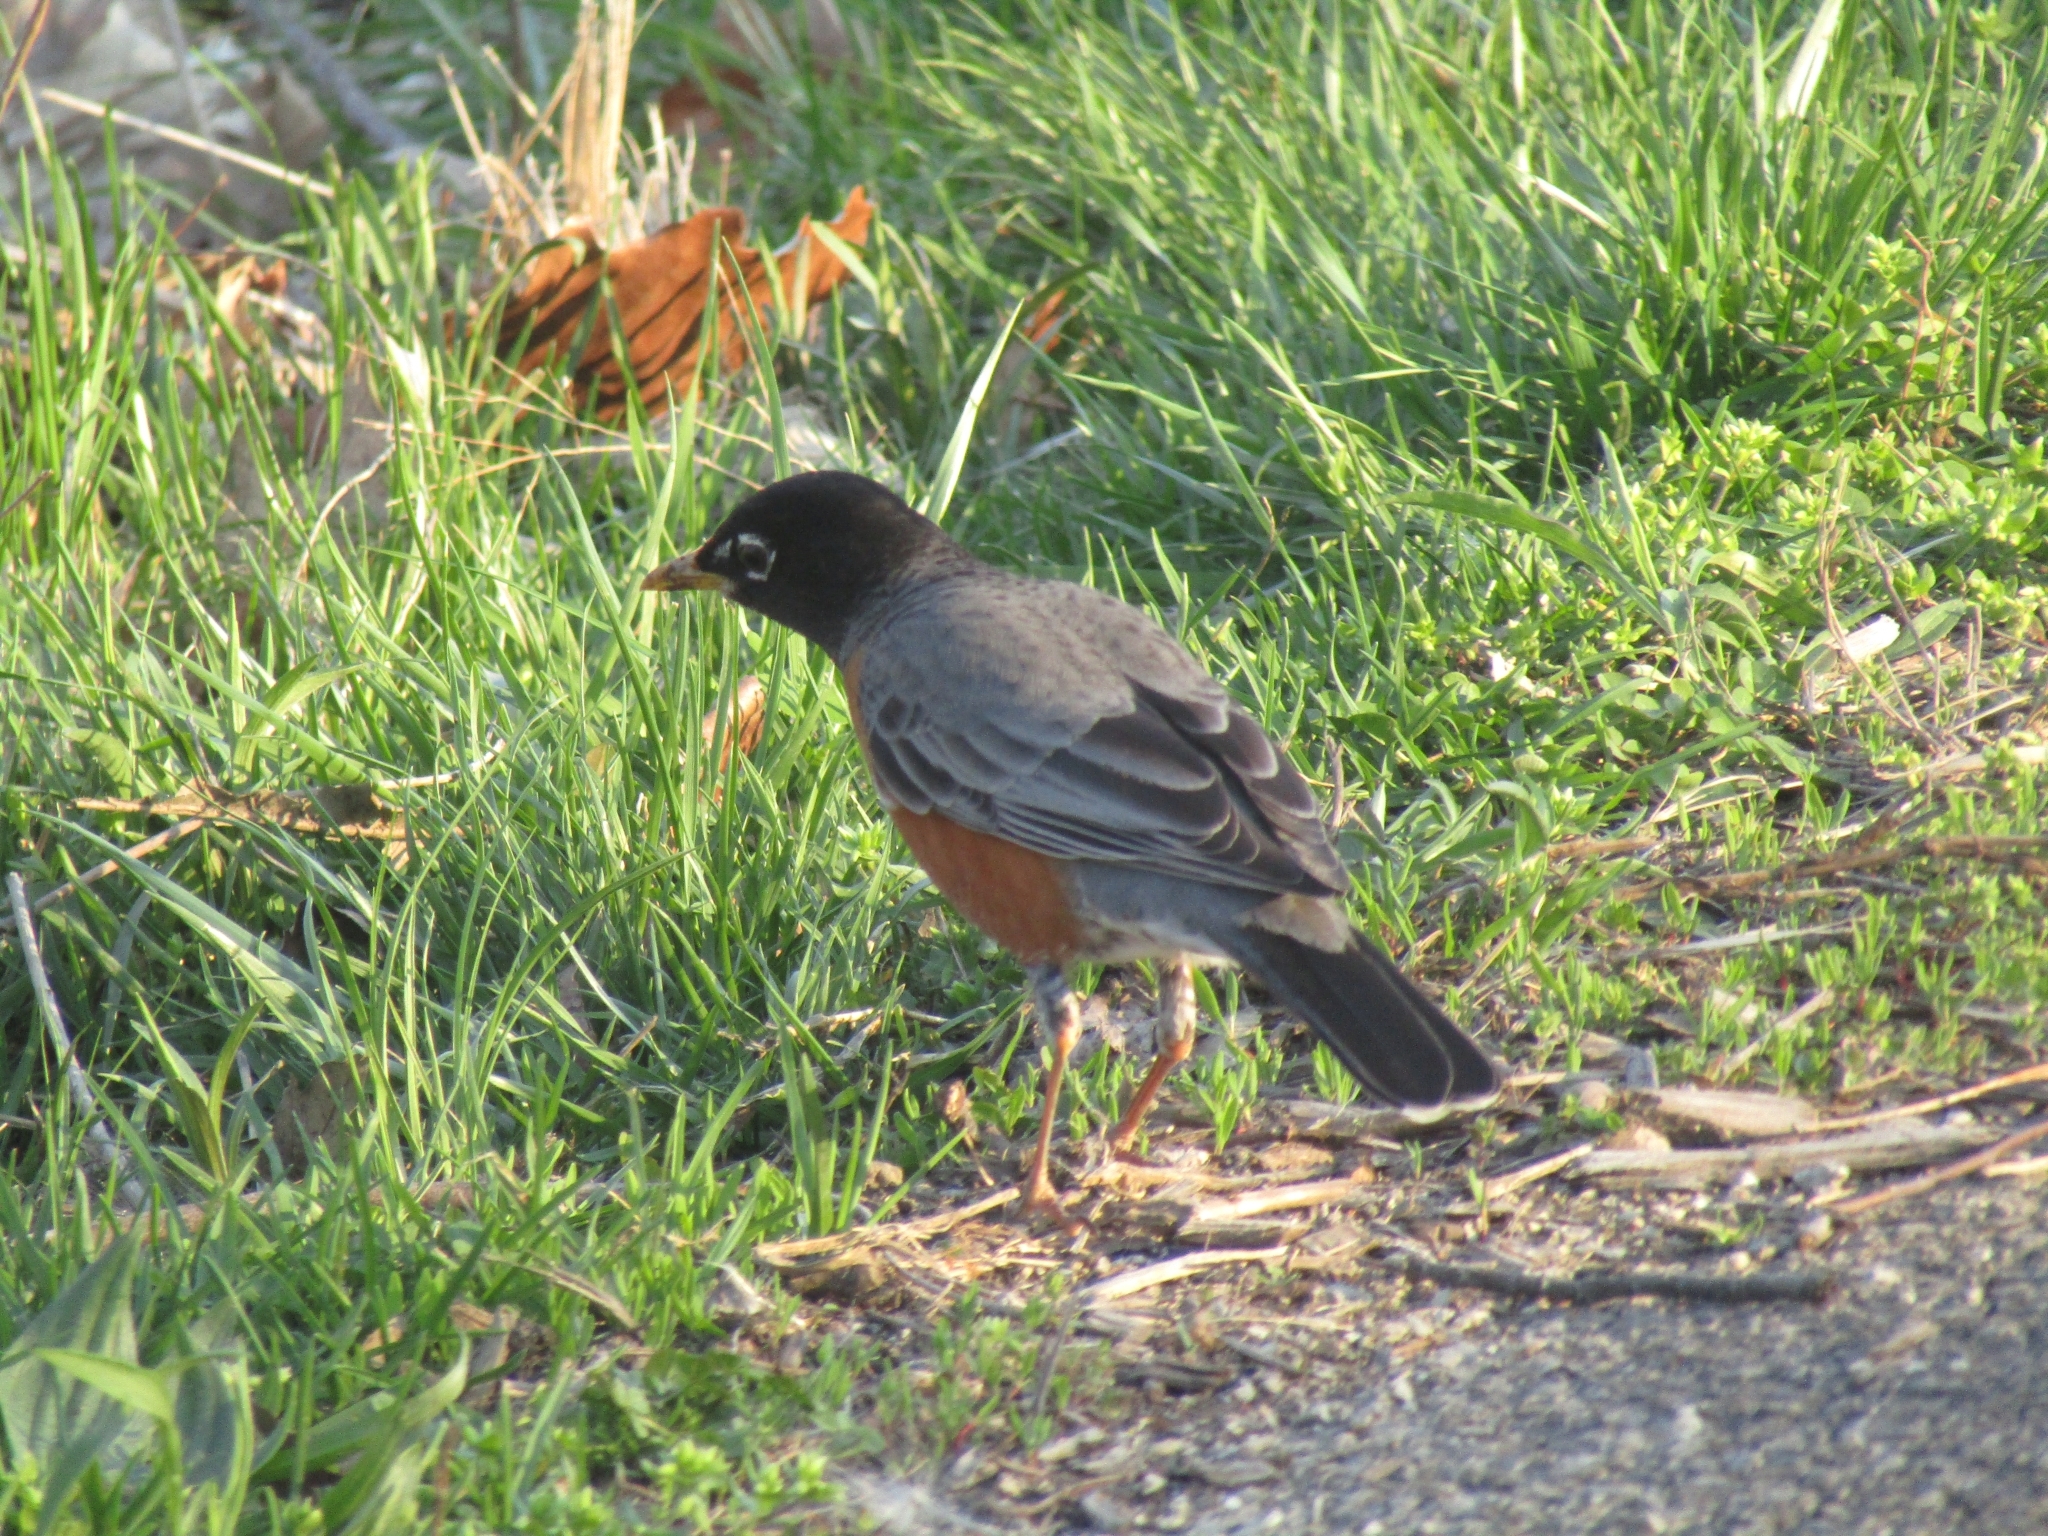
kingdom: Animalia
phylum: Chordata
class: Aves
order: Passeriformes
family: Turdidae
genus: Turdus
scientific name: Turdus migratorius
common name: American robin
